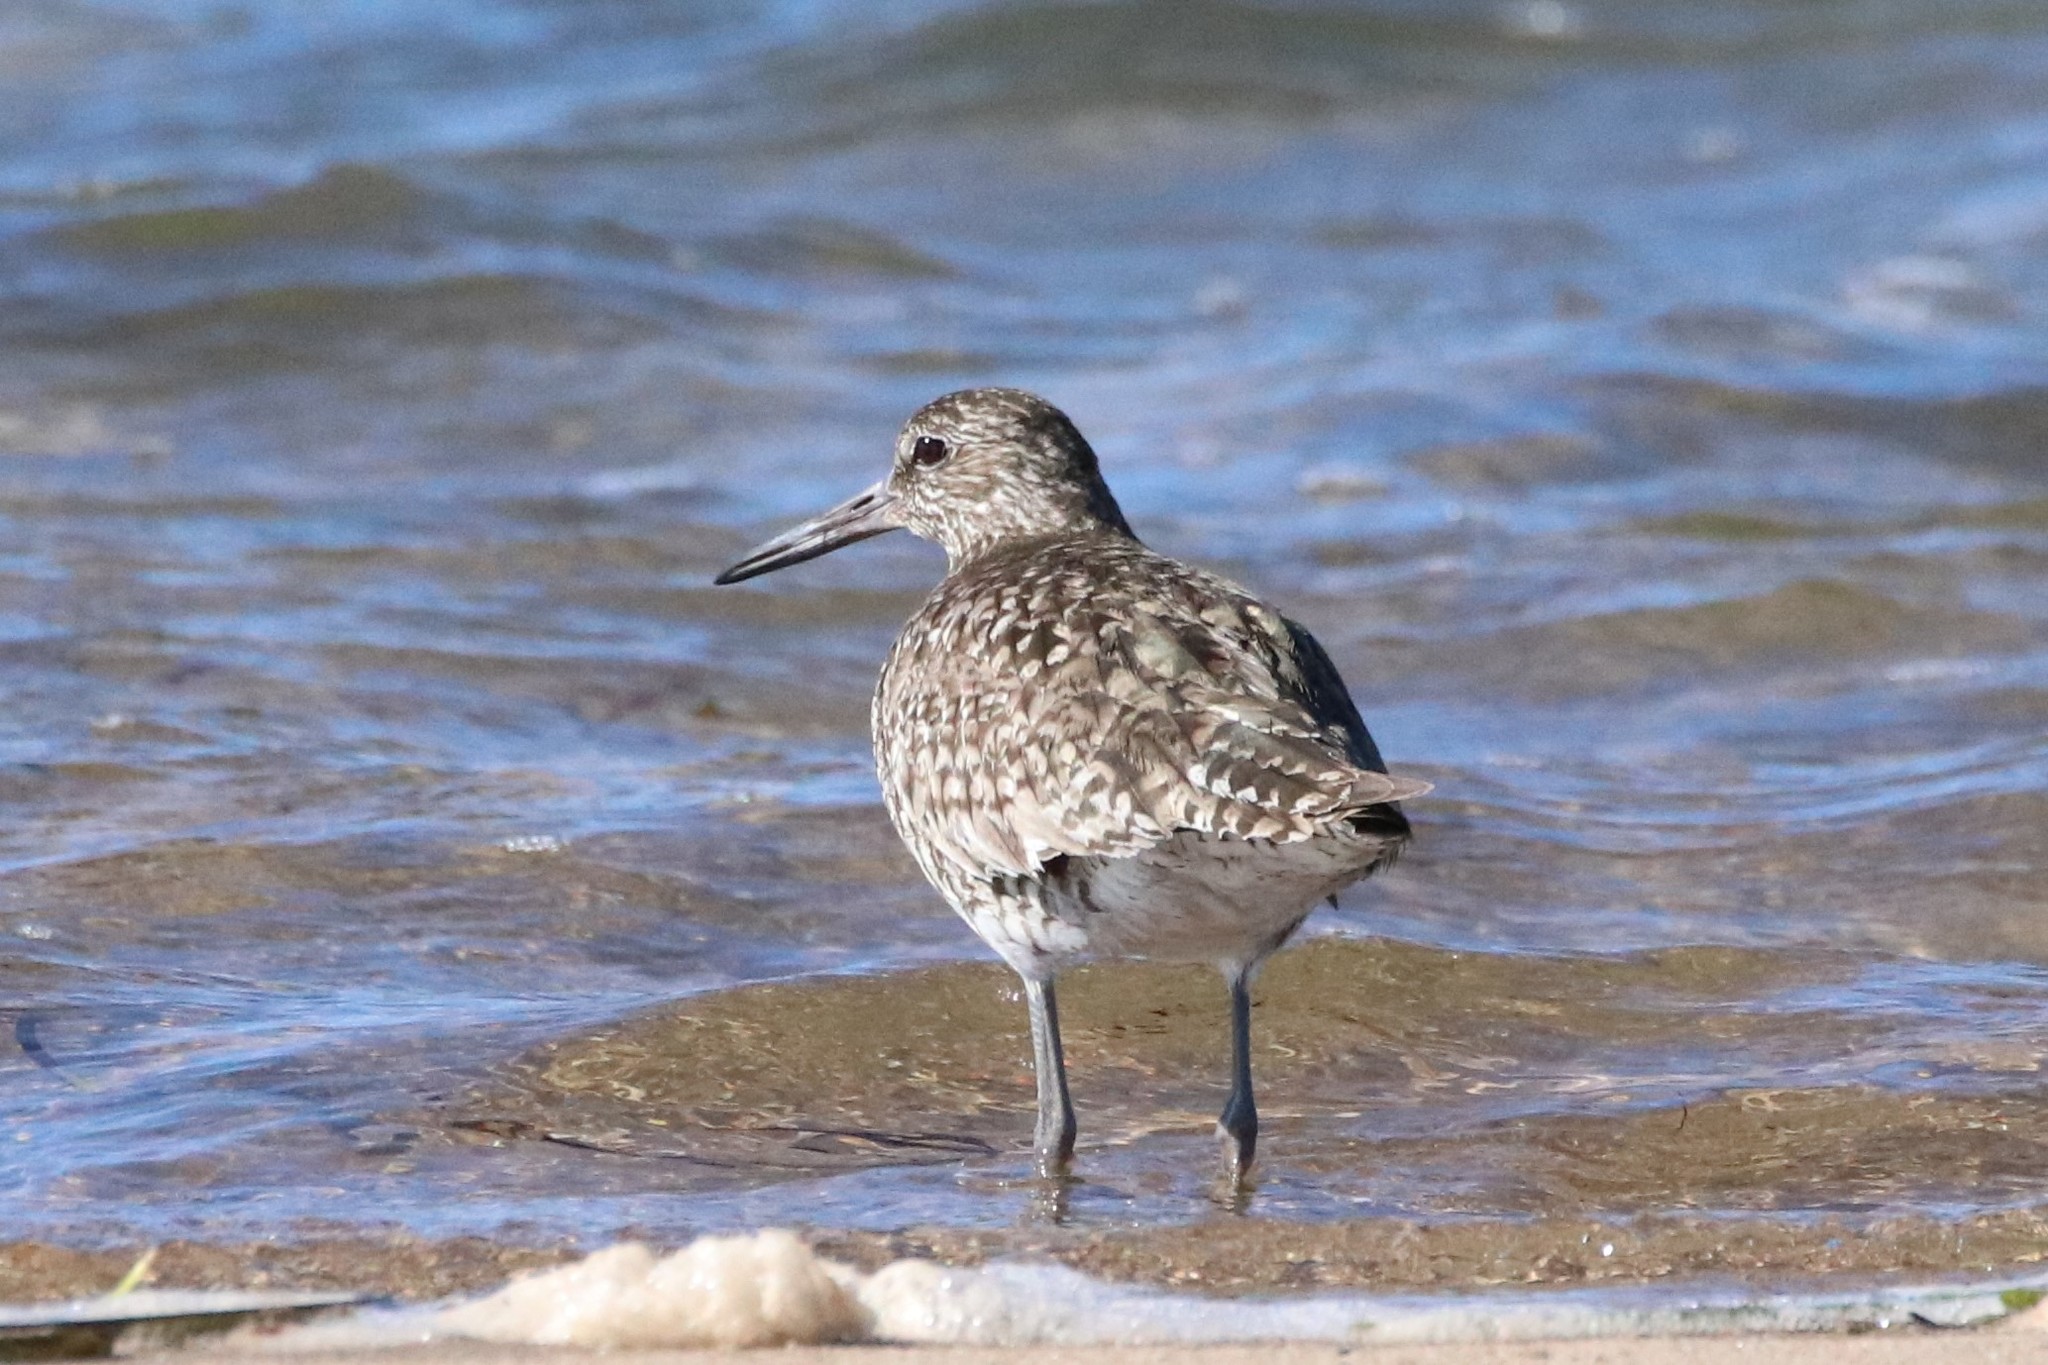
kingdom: Animalia
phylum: Chordata
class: Aves
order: Charadriiformes
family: Scolopacidae
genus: Tringa
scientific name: Tringa semipalmata
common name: Willet
